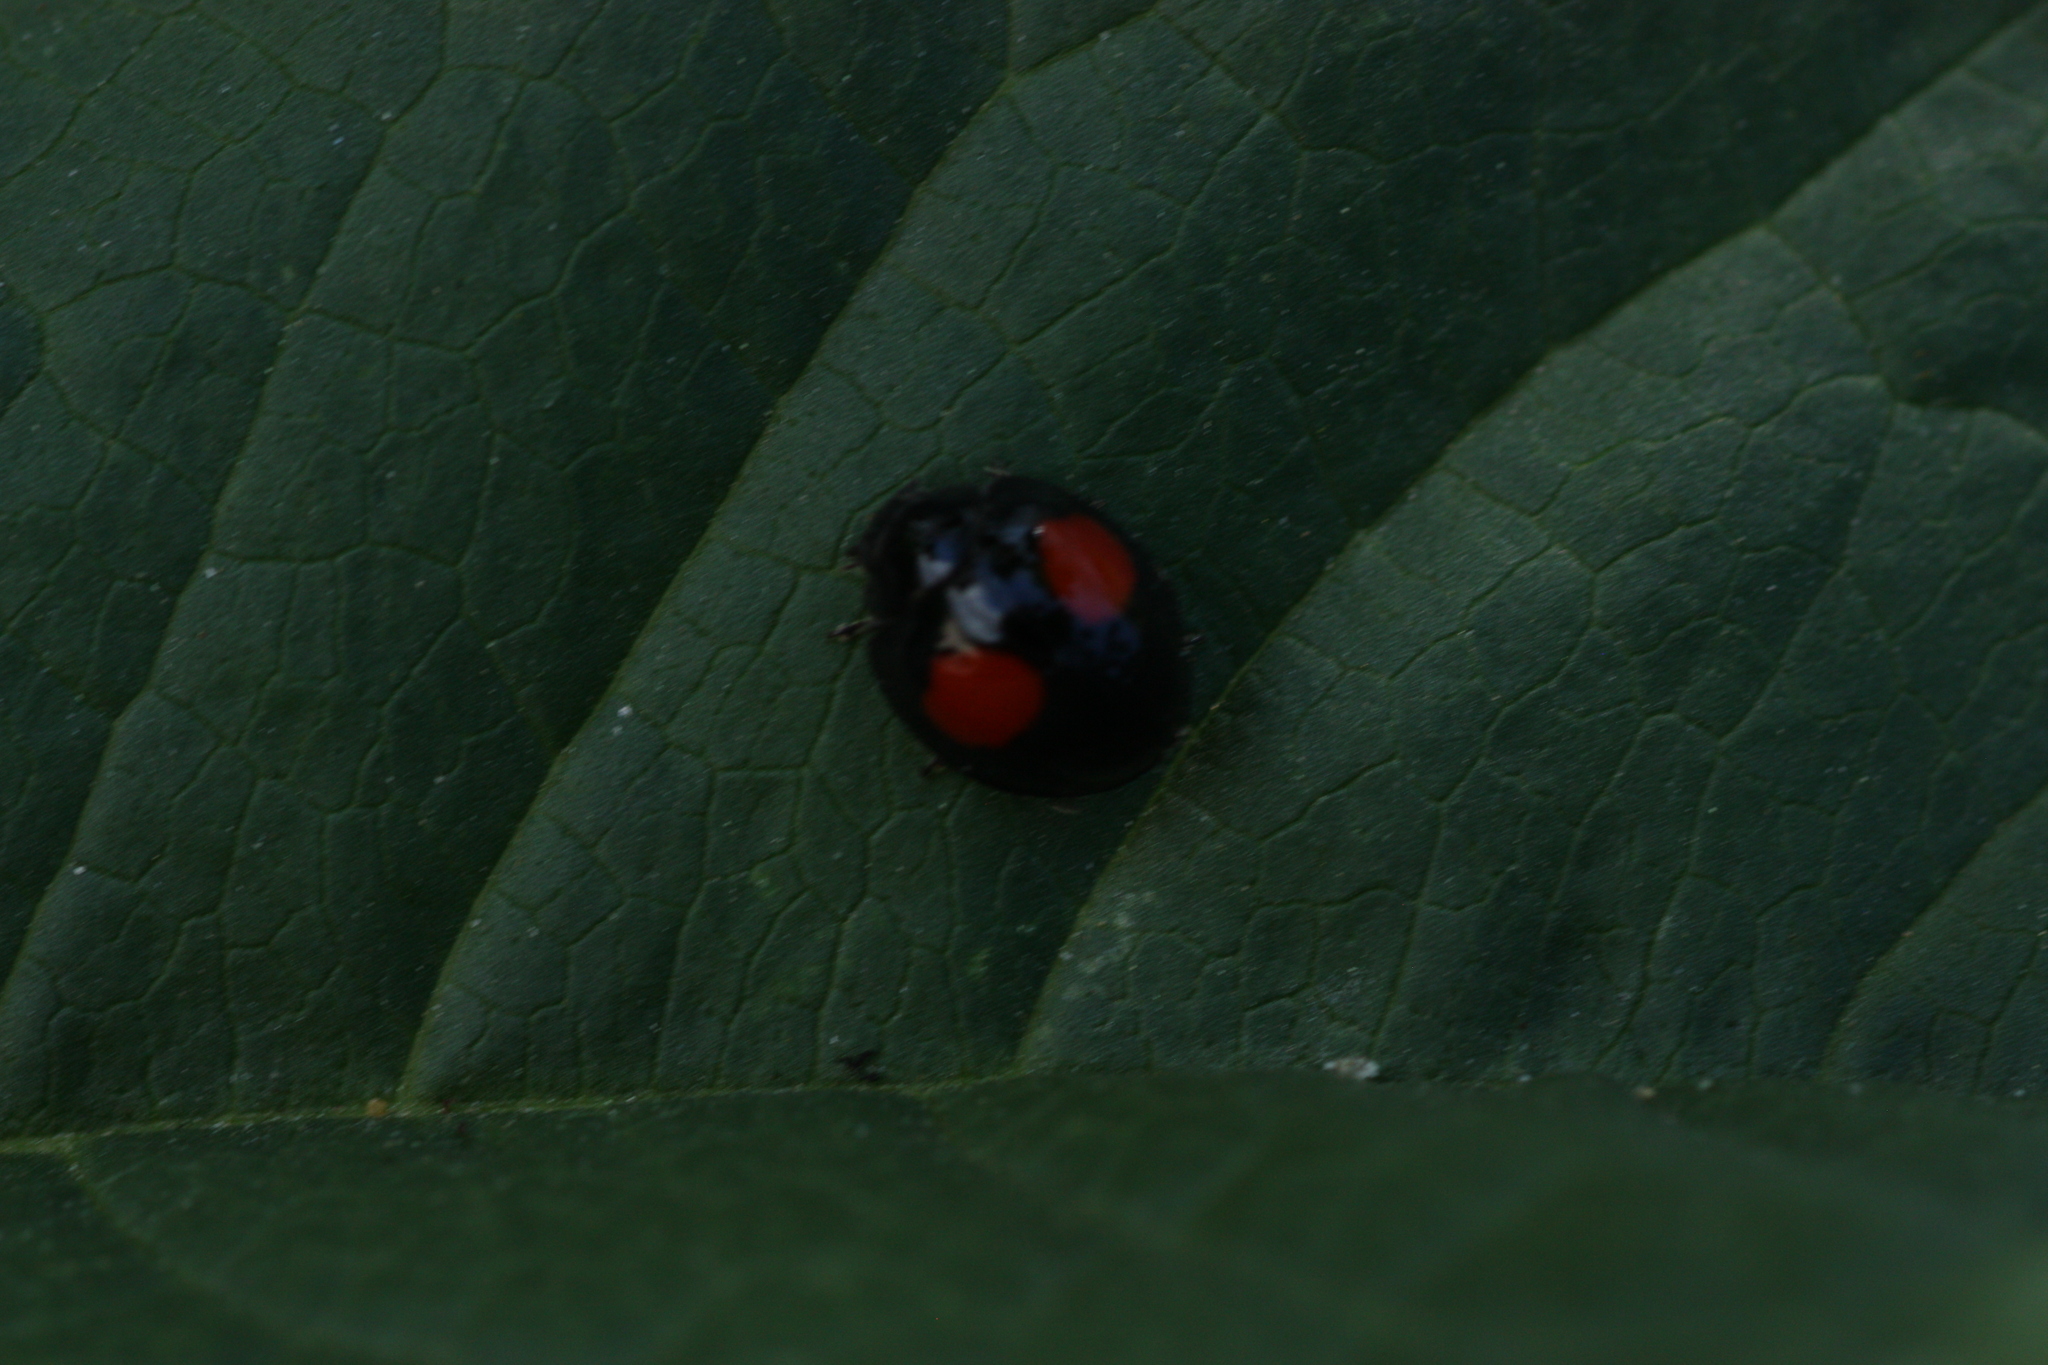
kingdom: Animalia
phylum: Arthropoda
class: Insecta
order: Coleoptera
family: Coccinellidae
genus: Chilocorus
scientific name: Chilocorus cacti
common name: Cactus lady beetle
